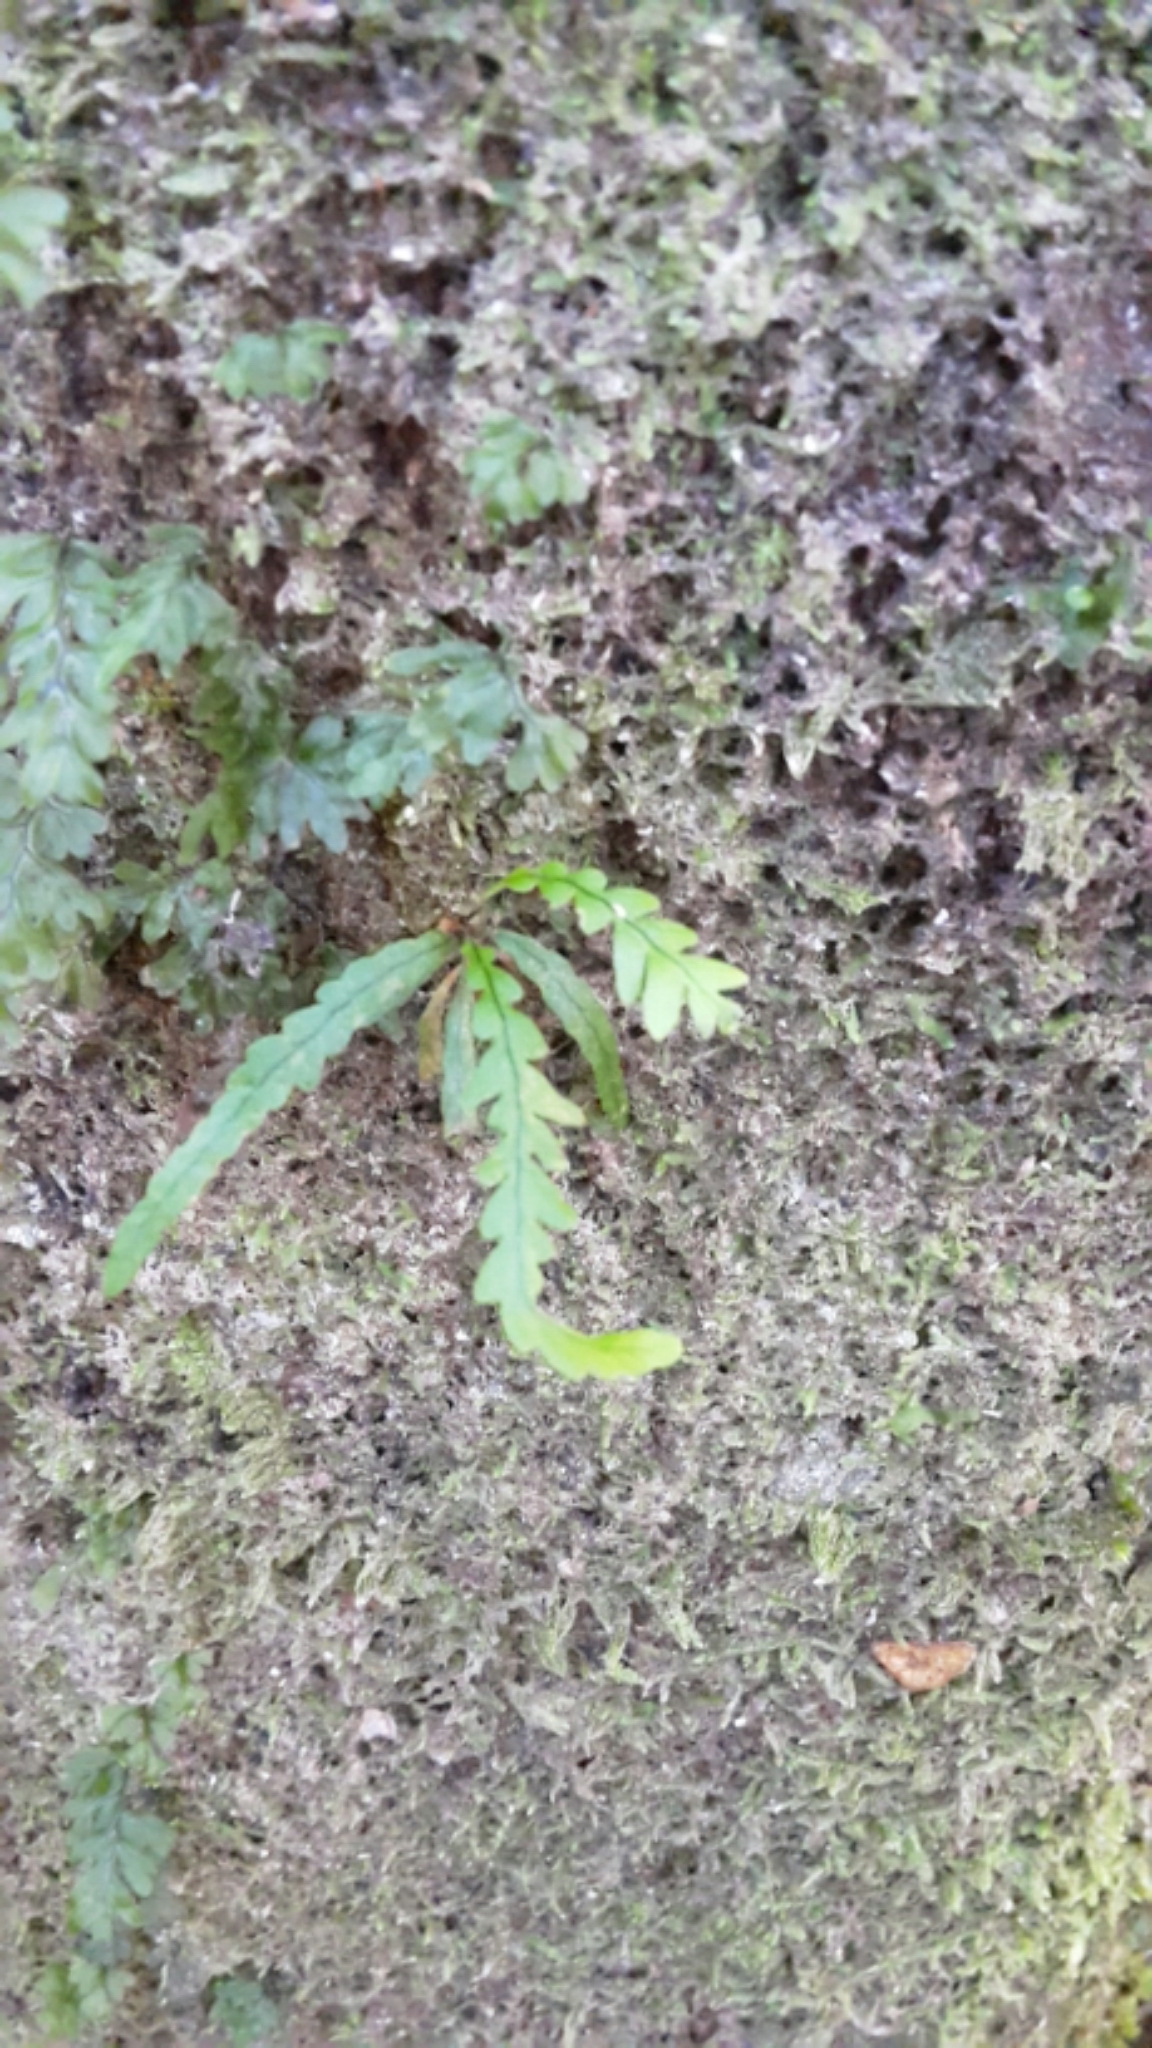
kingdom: Plantae
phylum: Tracheophyta
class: Polypodiopsida
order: Polypodiales
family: Polypodiaceae
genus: Notogrammitis
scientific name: Notogrammitis heterophylla
